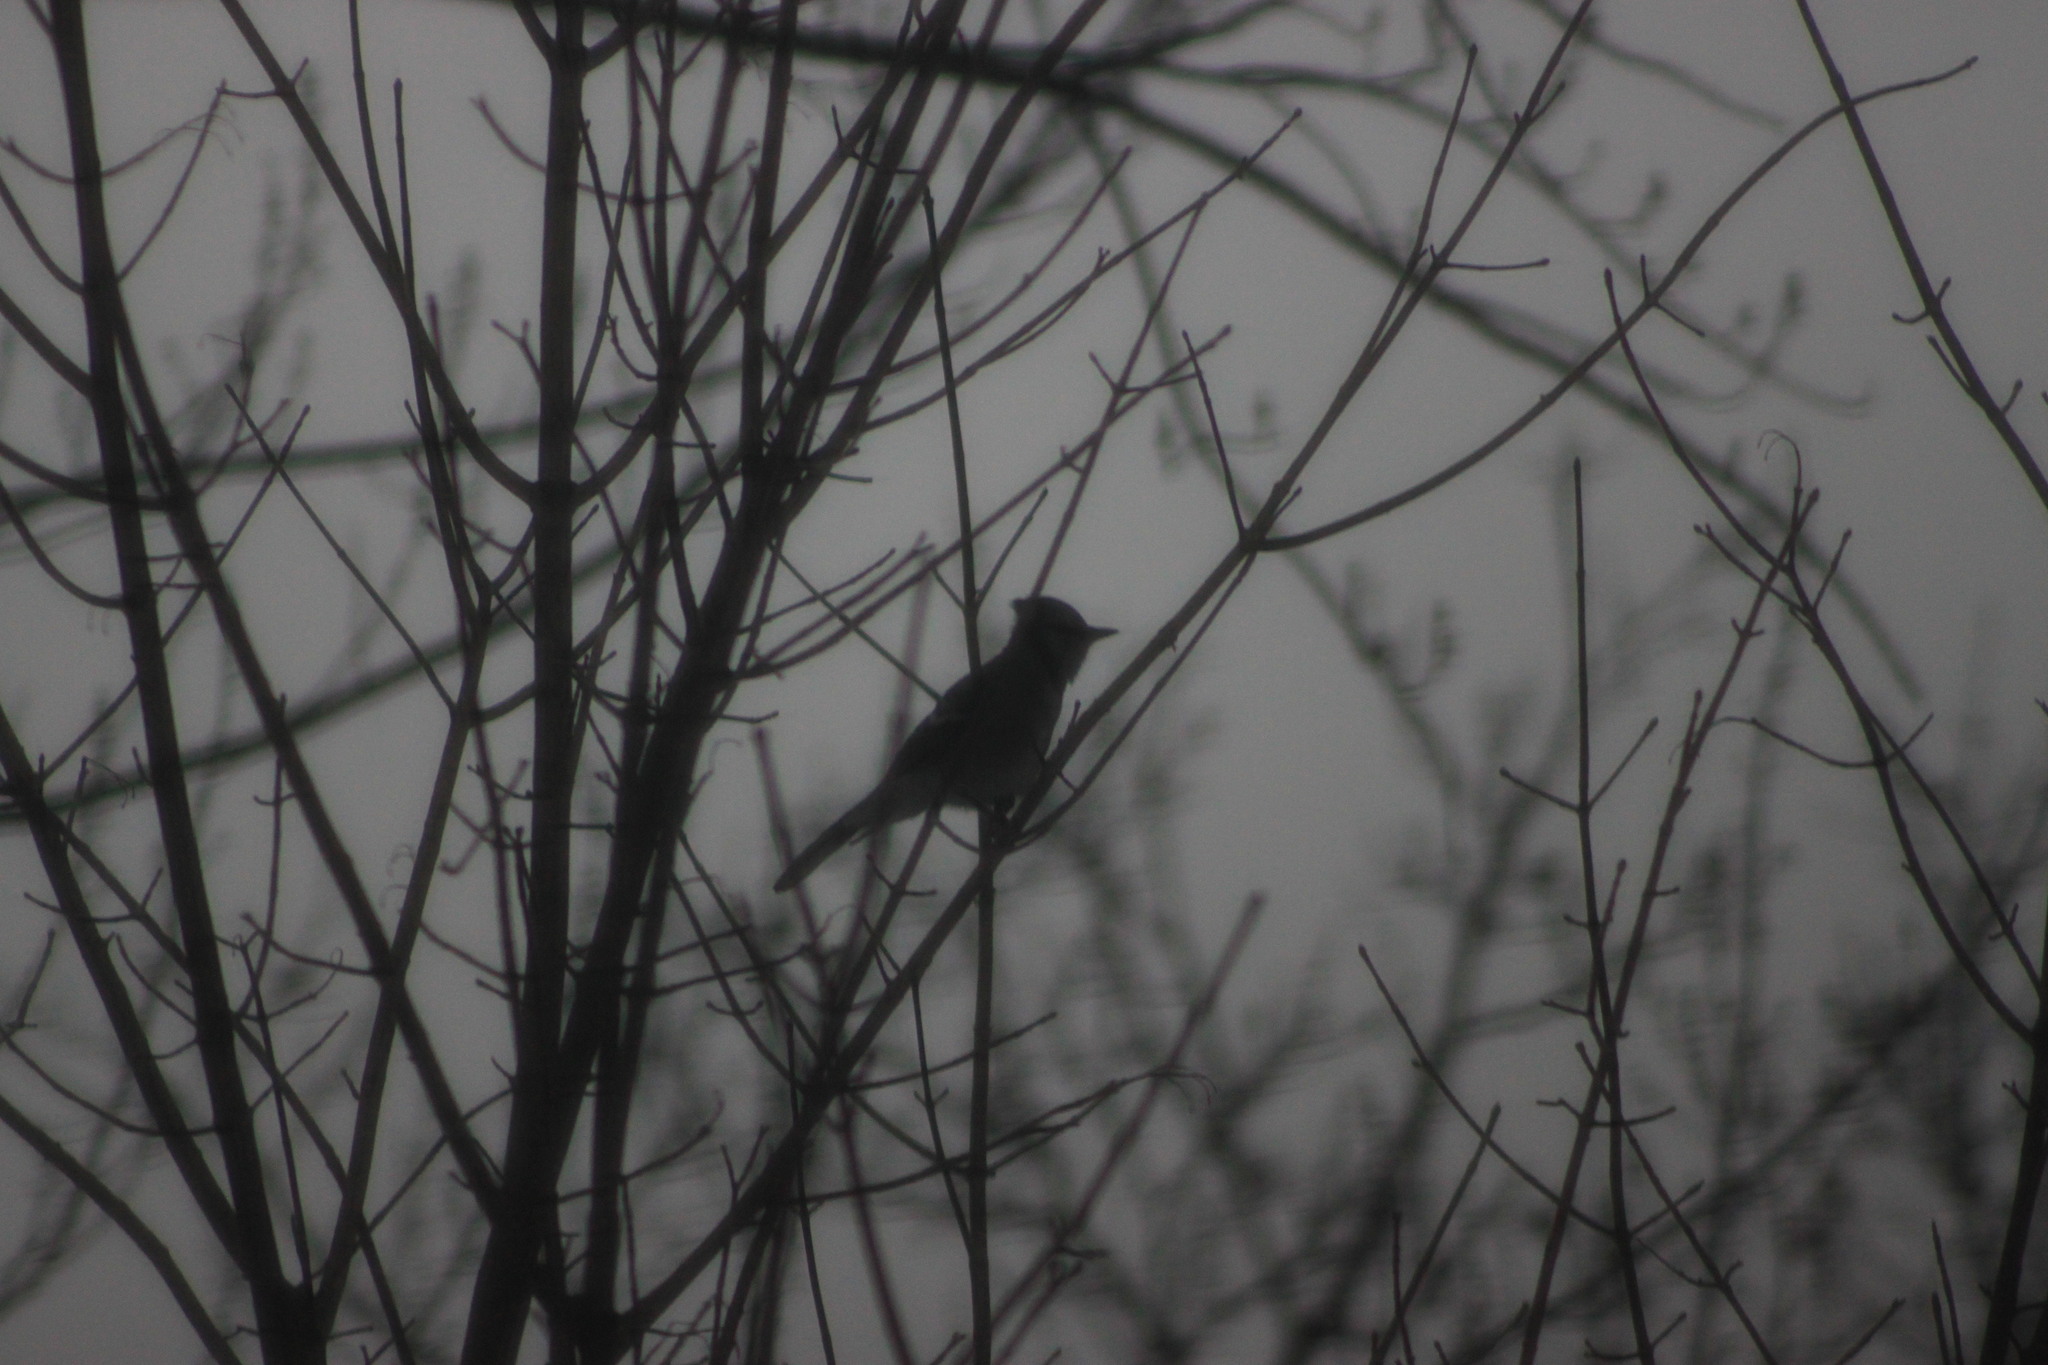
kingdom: Animalia
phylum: Chordata
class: Aves
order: Passeriformes
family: Corvidae
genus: Cyanocitta
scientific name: Cyanocitta cristata
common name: Blue jay
